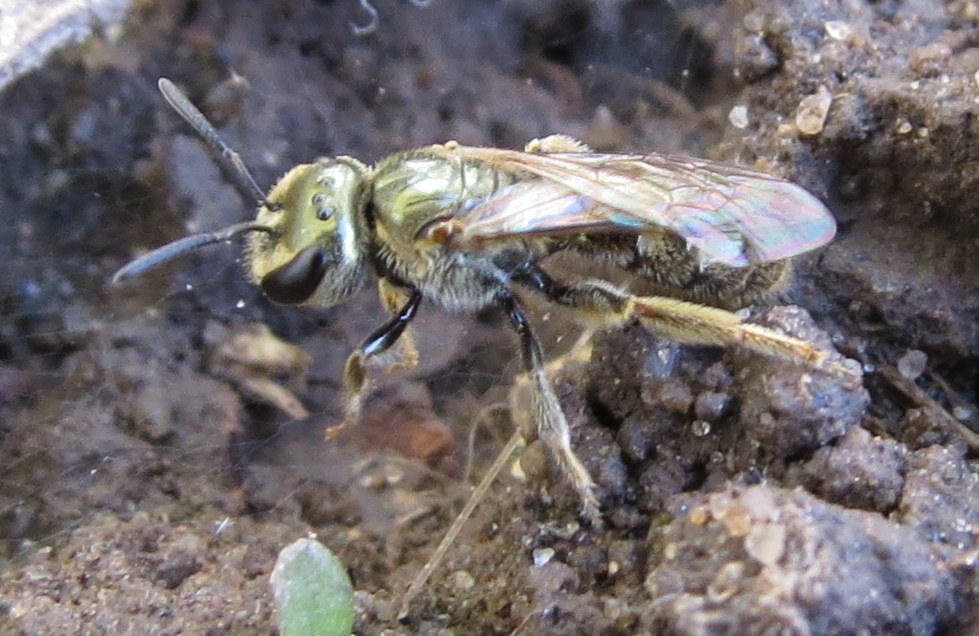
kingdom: Animalia
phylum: Arthropoda
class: Insecta
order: Hymenoptera
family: Halictidae
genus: Lasioglossum
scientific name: Lasioglossum zephyrum
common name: Zephyr sweat bee
